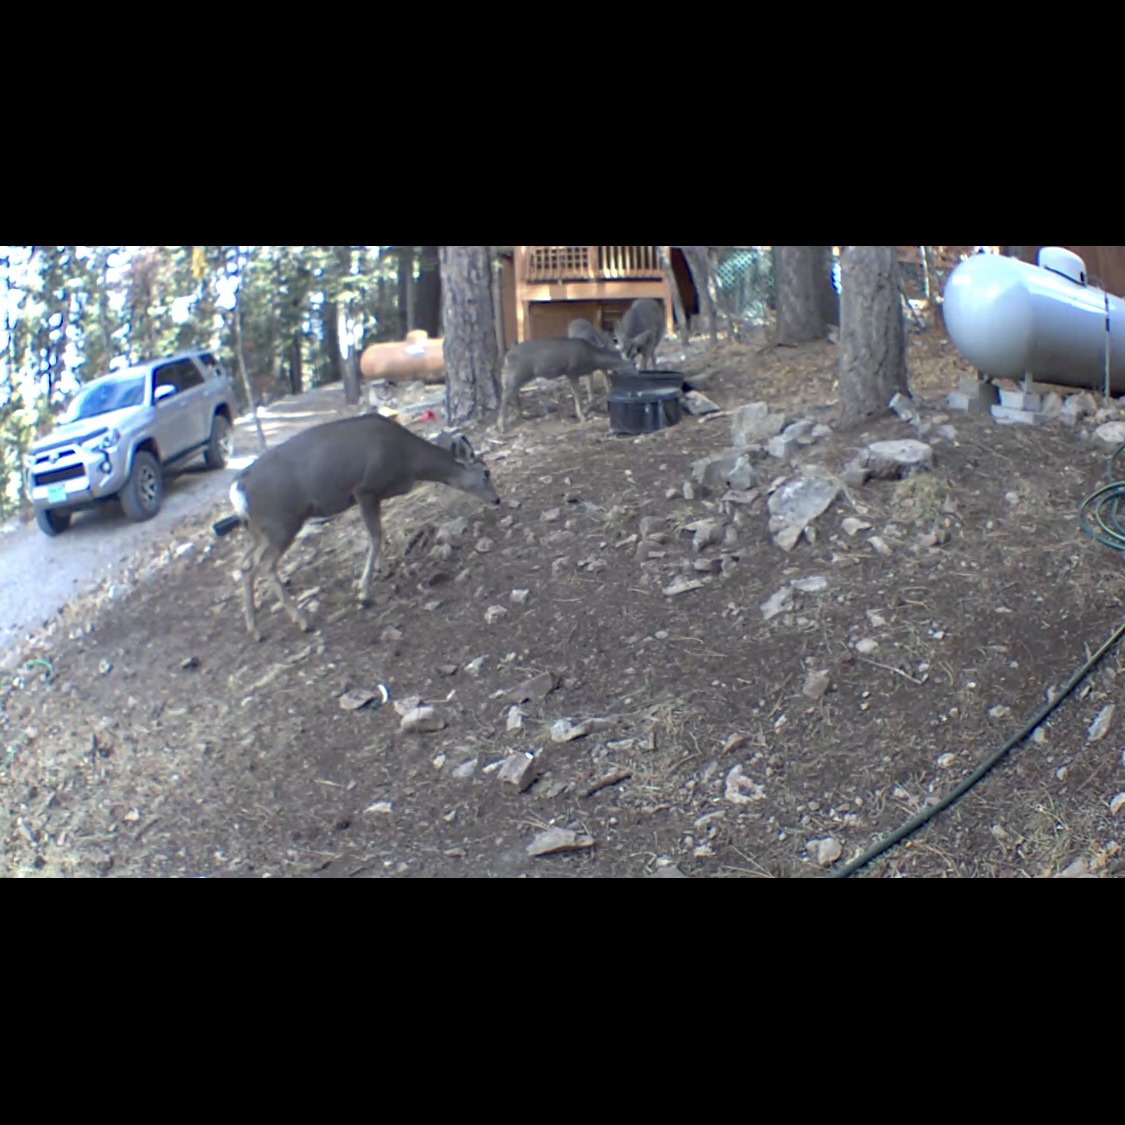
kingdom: Animalia
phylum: Chordata
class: Mammalia
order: Artiodactyla
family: Cervidae
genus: Odocoileus
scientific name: Odocoileus hemionus
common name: Mule deer
